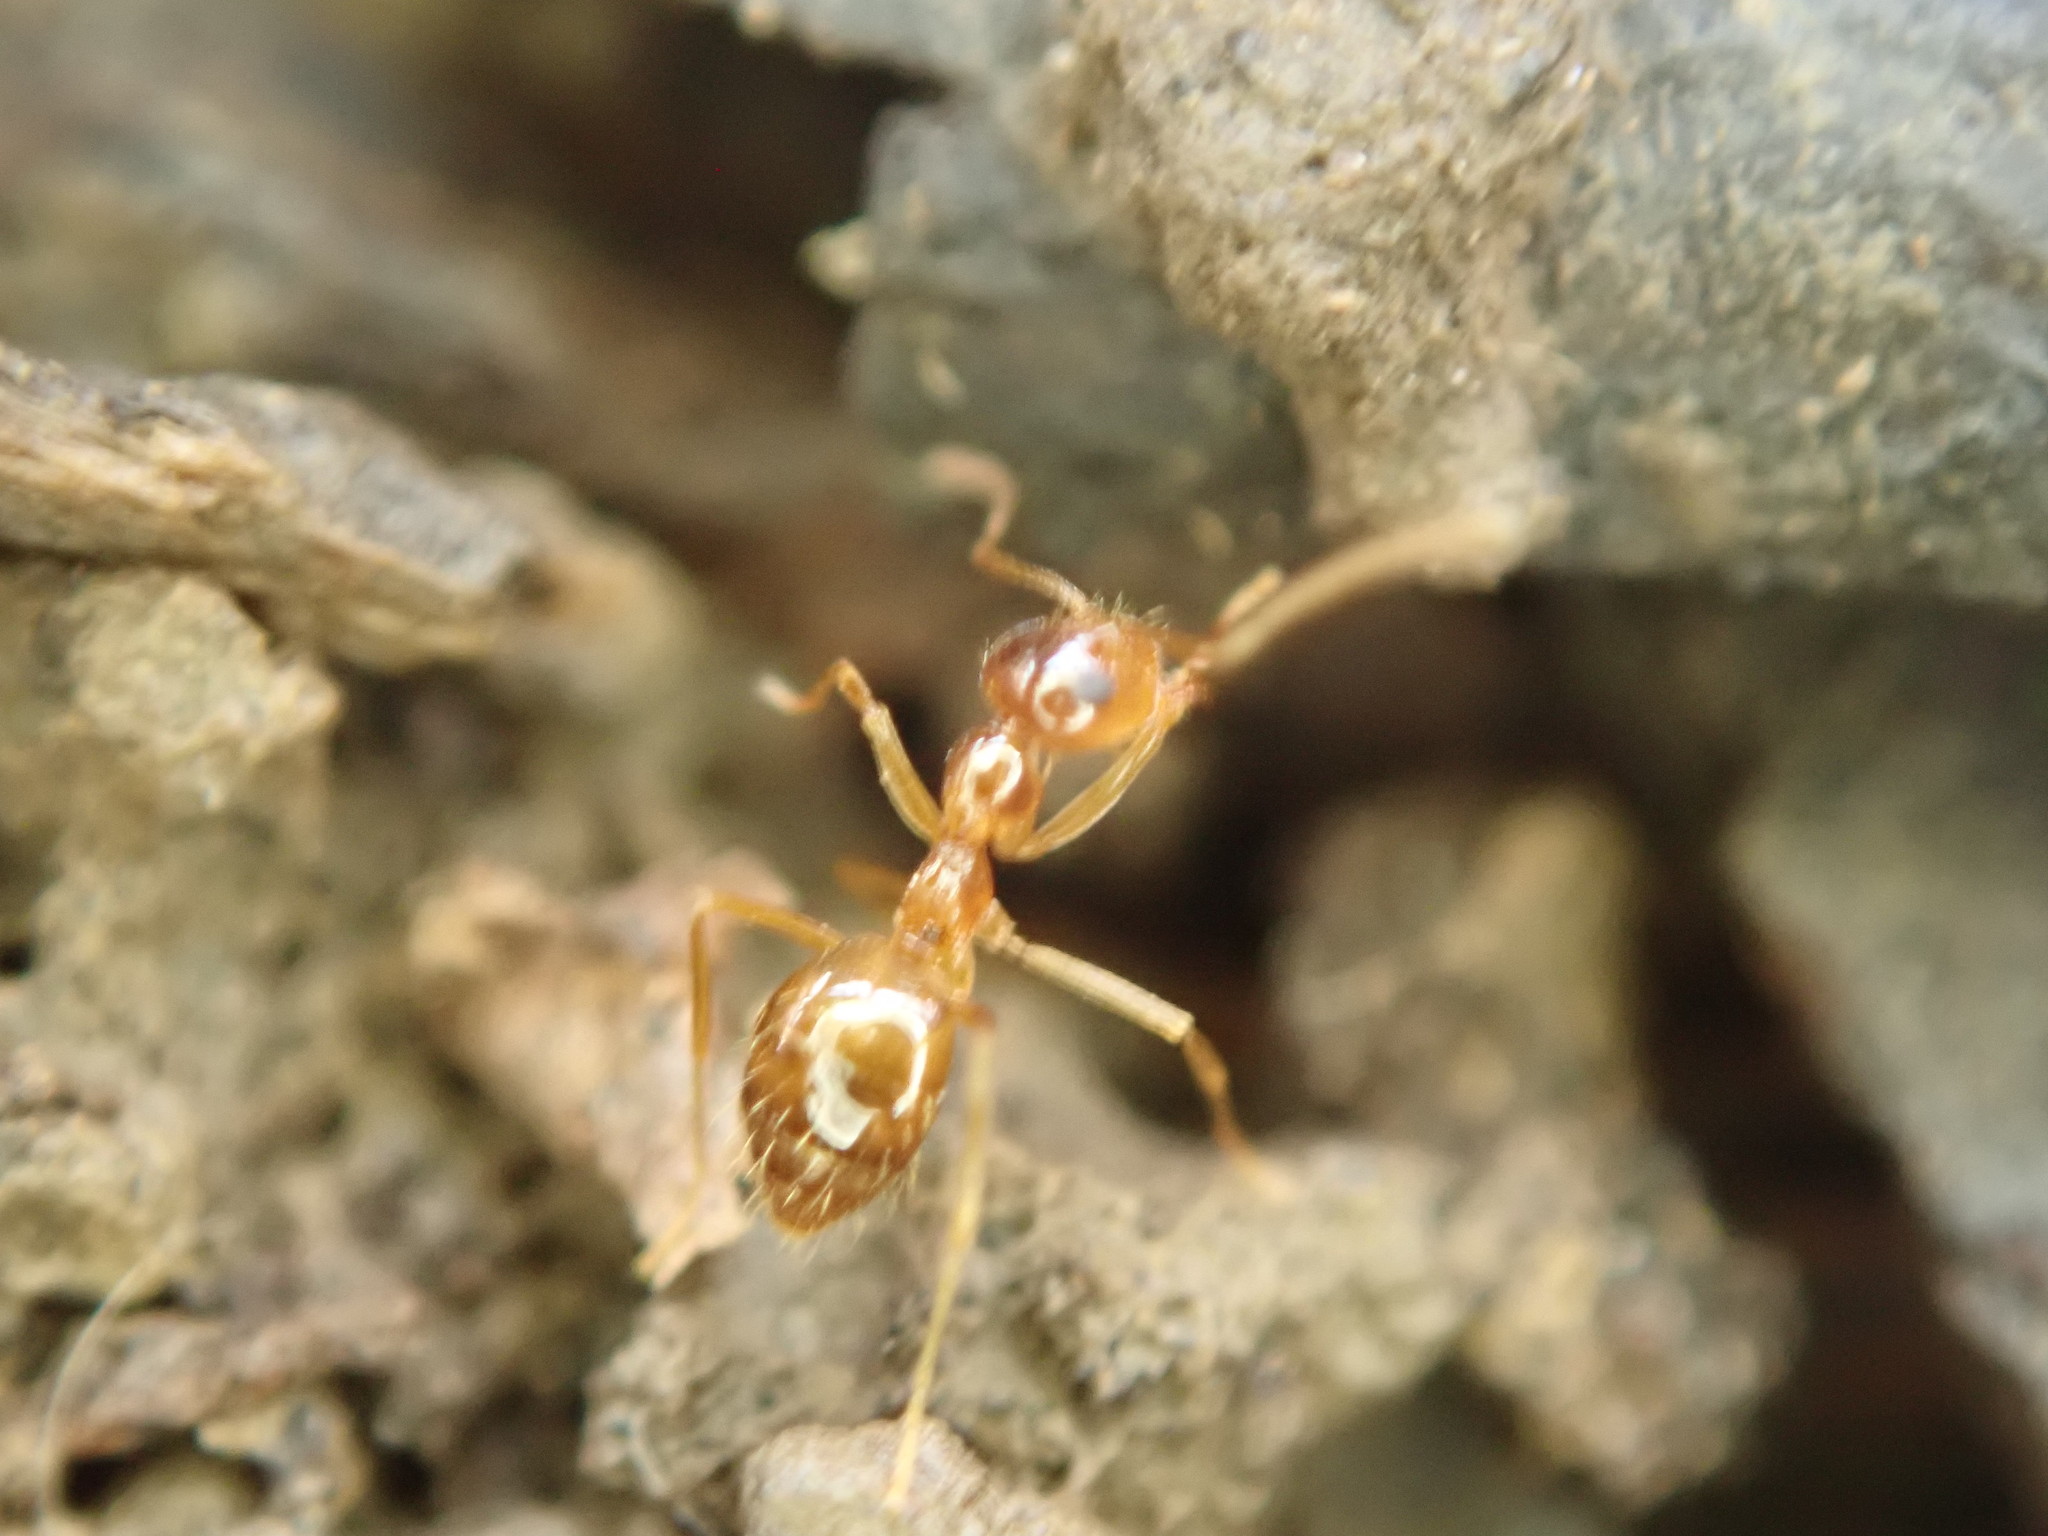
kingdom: Animalia
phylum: Arthropoda
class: Insecta
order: Hymenoptera
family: Formicidae
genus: Prenolepis
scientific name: Prenolepis imparis
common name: Small honey ant
